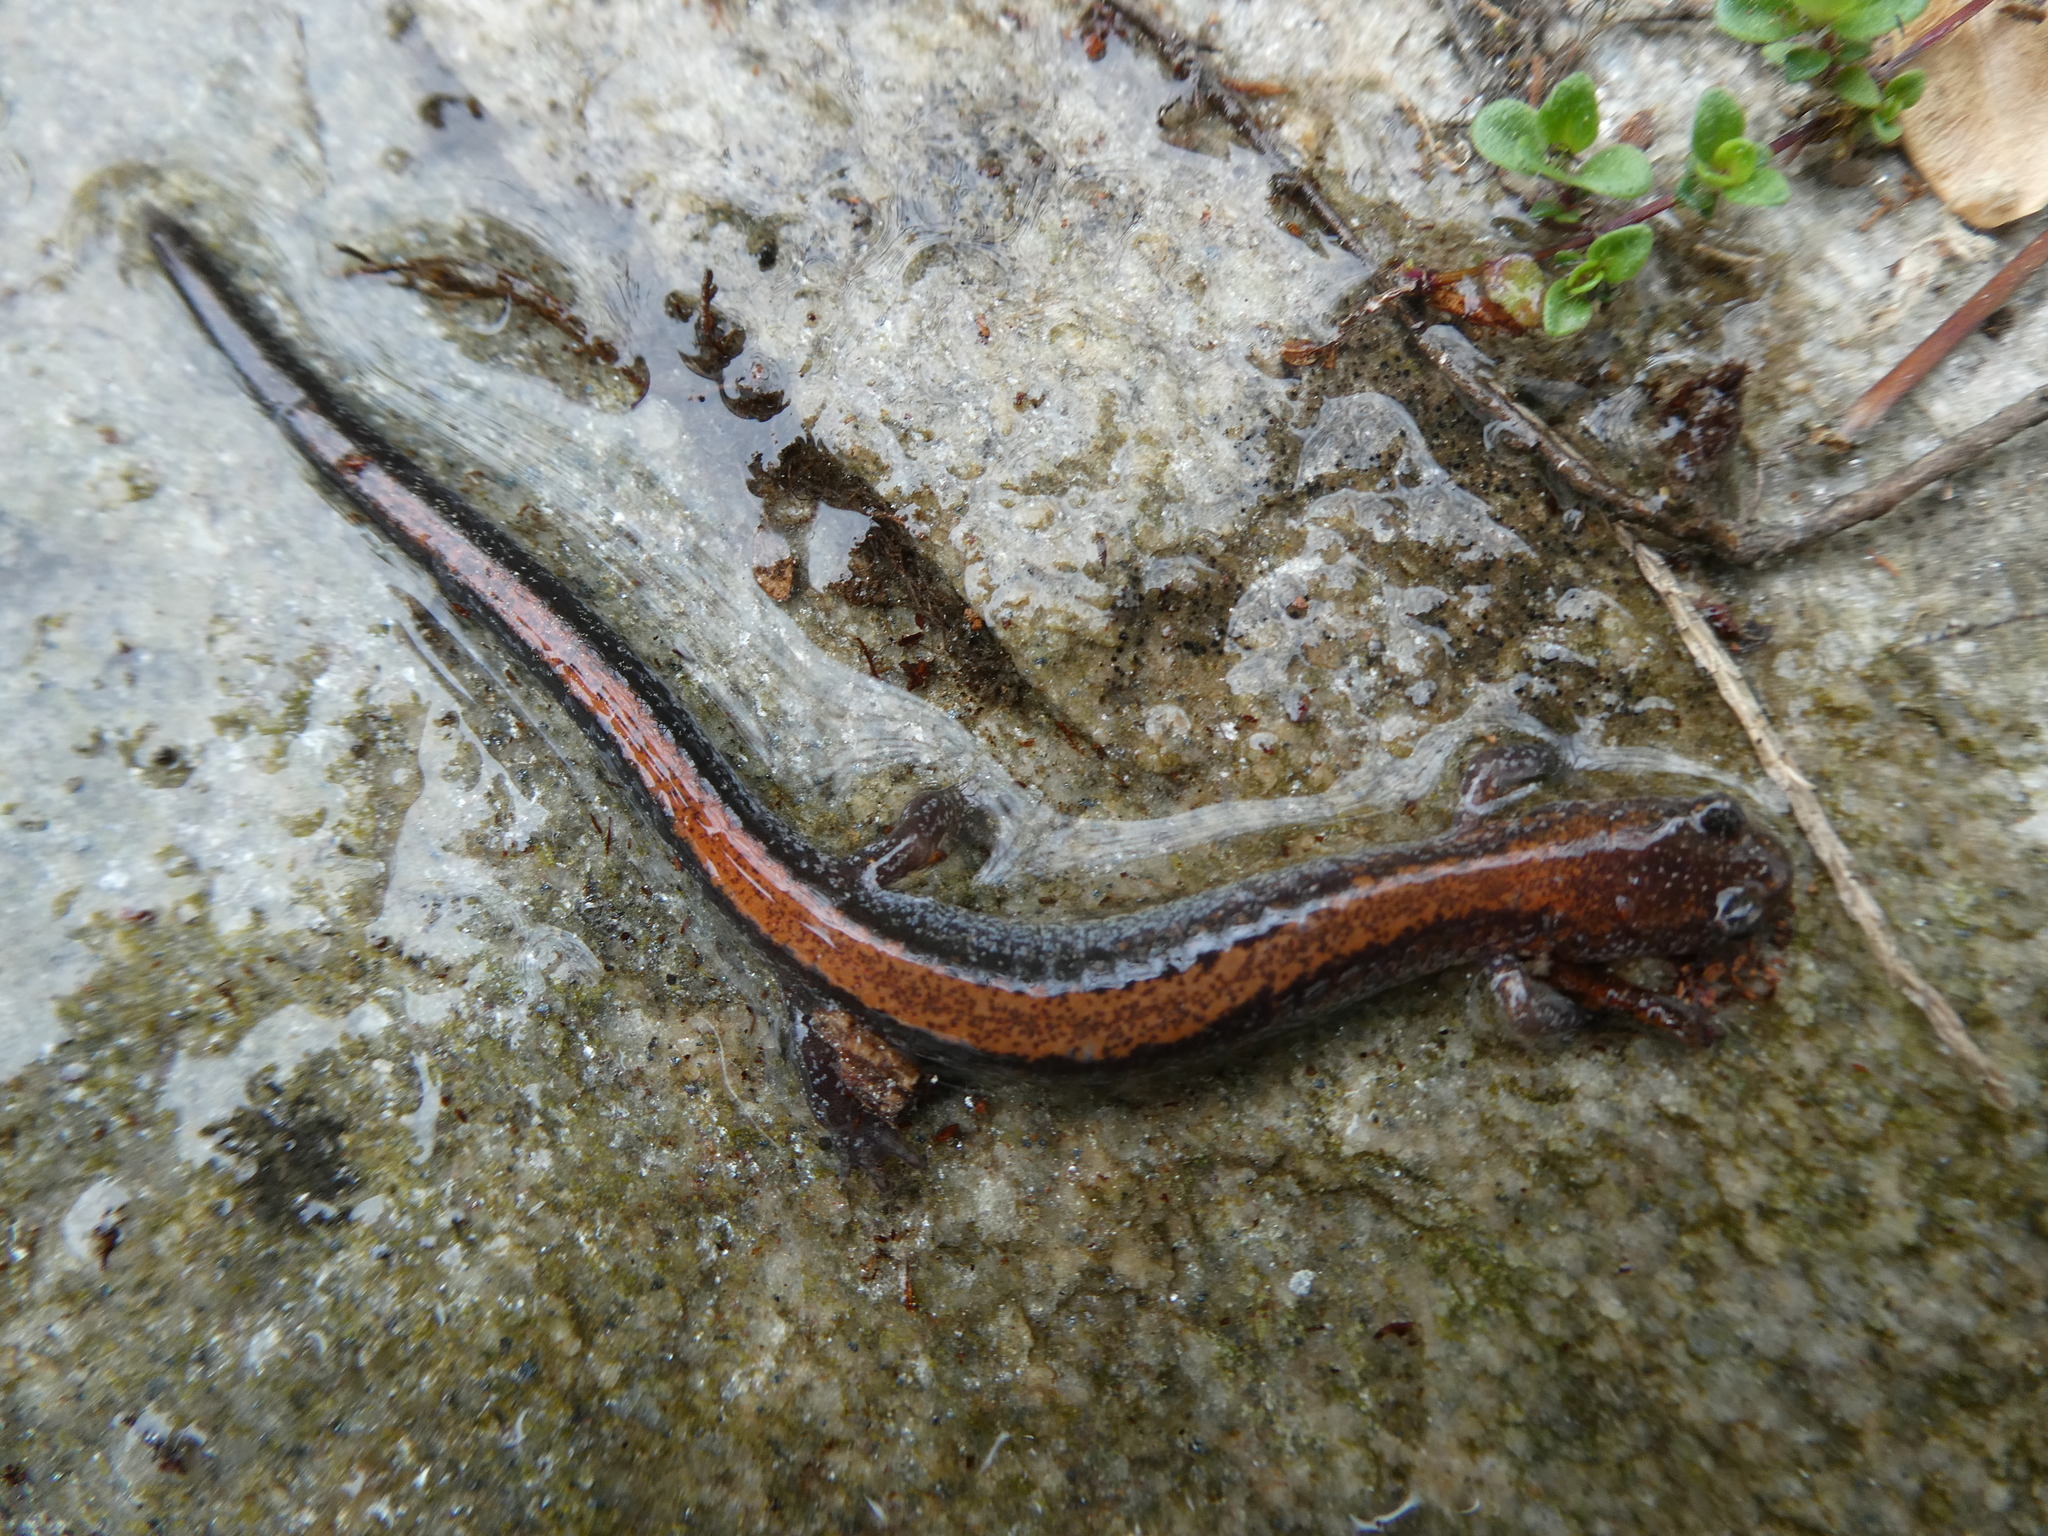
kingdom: Animalia
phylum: Chordata
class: Amphibia
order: Caudata
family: Plethodontidae
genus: Plethodon
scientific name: Plethodon cinereus
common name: Redback salamander
